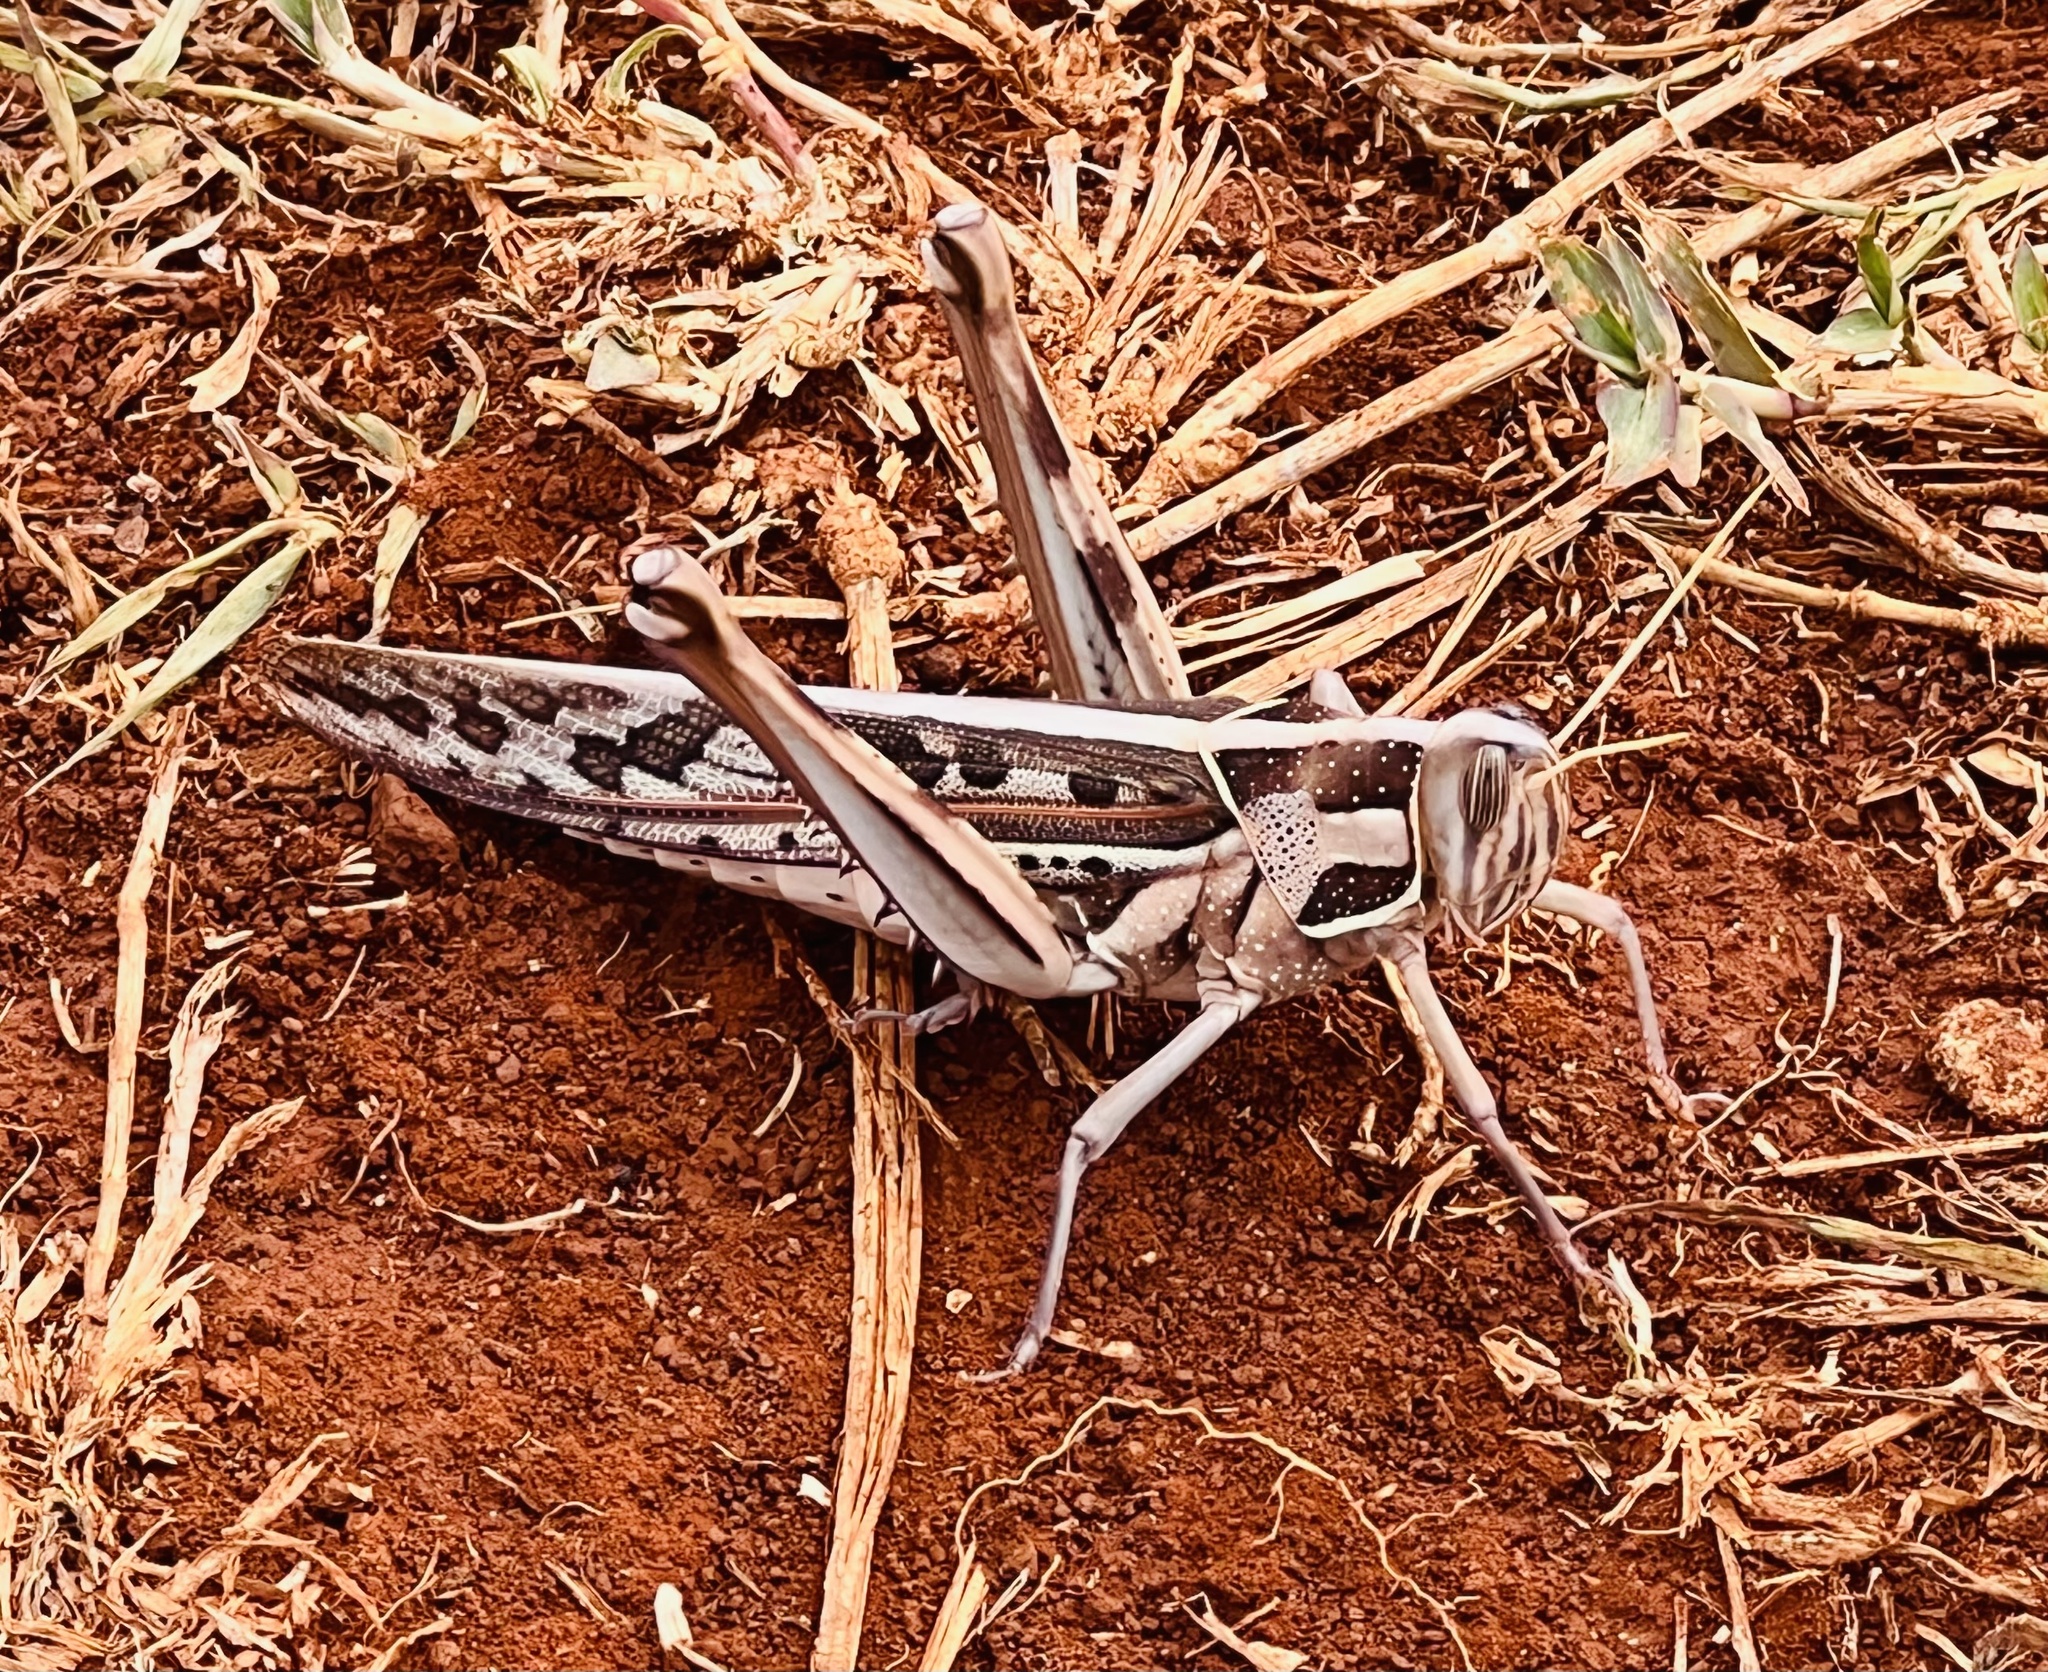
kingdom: Animalia
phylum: Arthropoda
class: Insecta
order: Orthoptera
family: Acrididae
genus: Cyrtacanthacris
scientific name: Cyrtacanthacris tatarica
